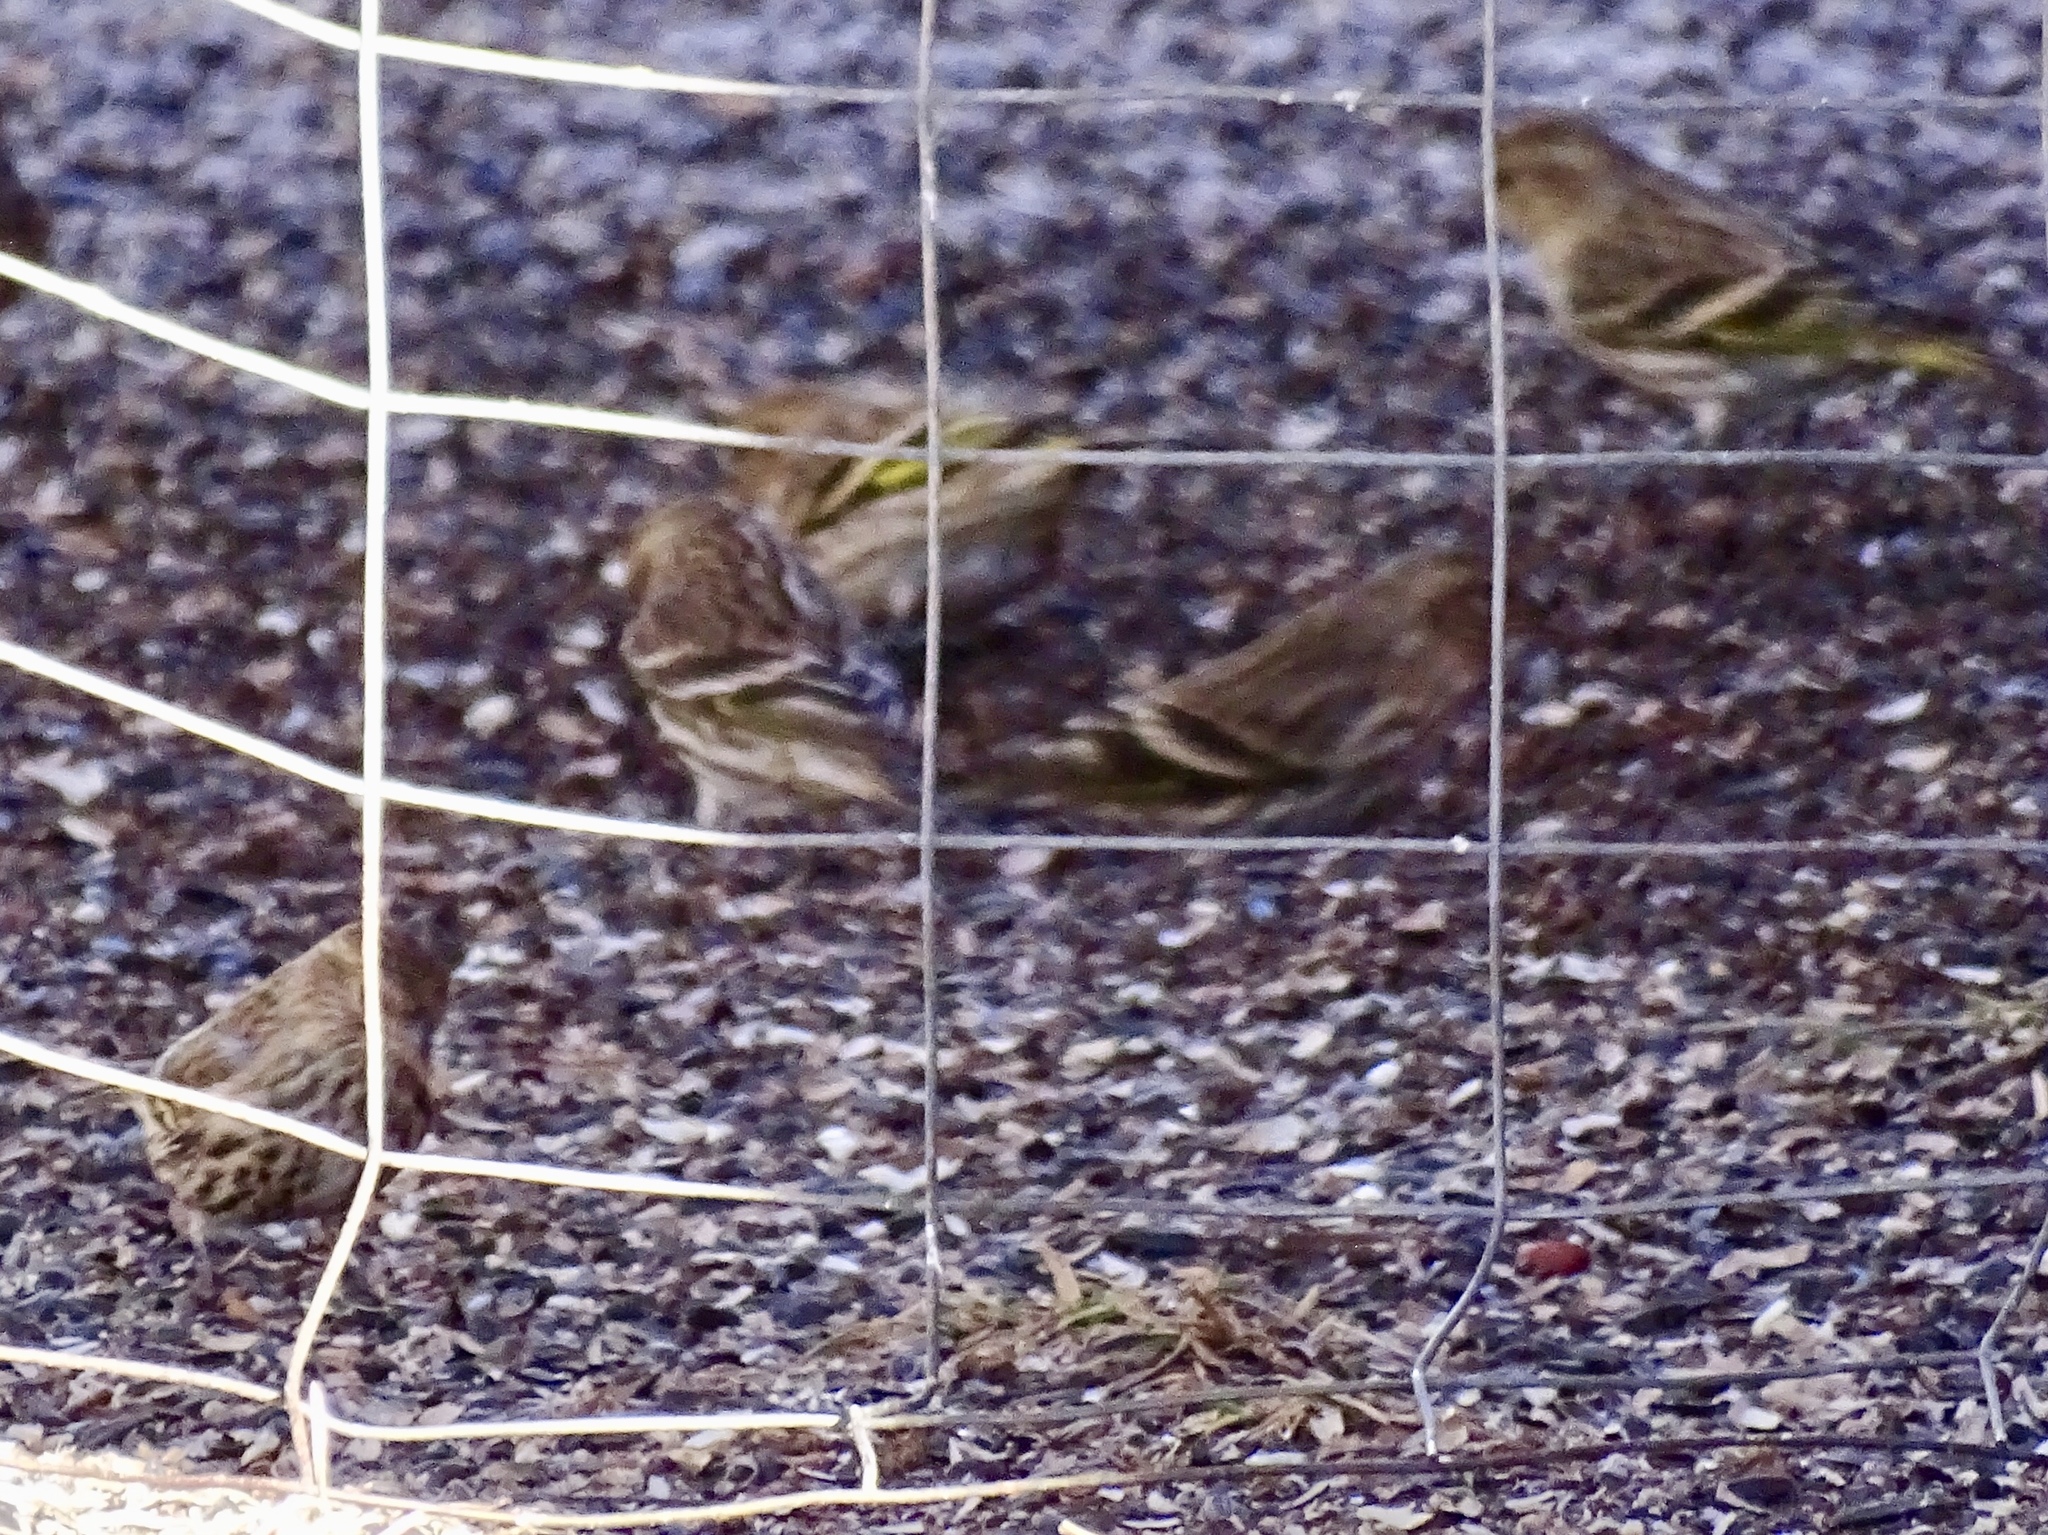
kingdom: Animalia
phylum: Chordata
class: Aves
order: Passeriformes
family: Fringillidae
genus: Spinus
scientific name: Spinus pinus
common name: Pine siskin
